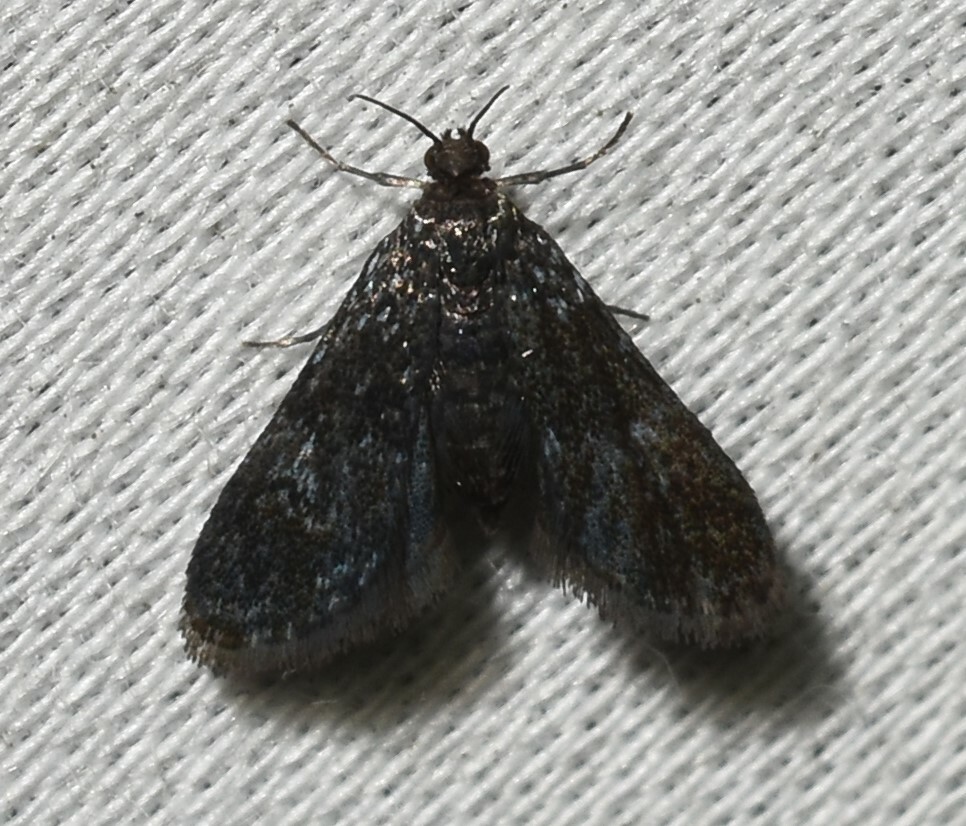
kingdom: Animalia
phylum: Arthropoda
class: Insecta
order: Lepidoptera
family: Crambidae
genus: Elophila
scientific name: Elophila tinealis
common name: Black duckweed moth
